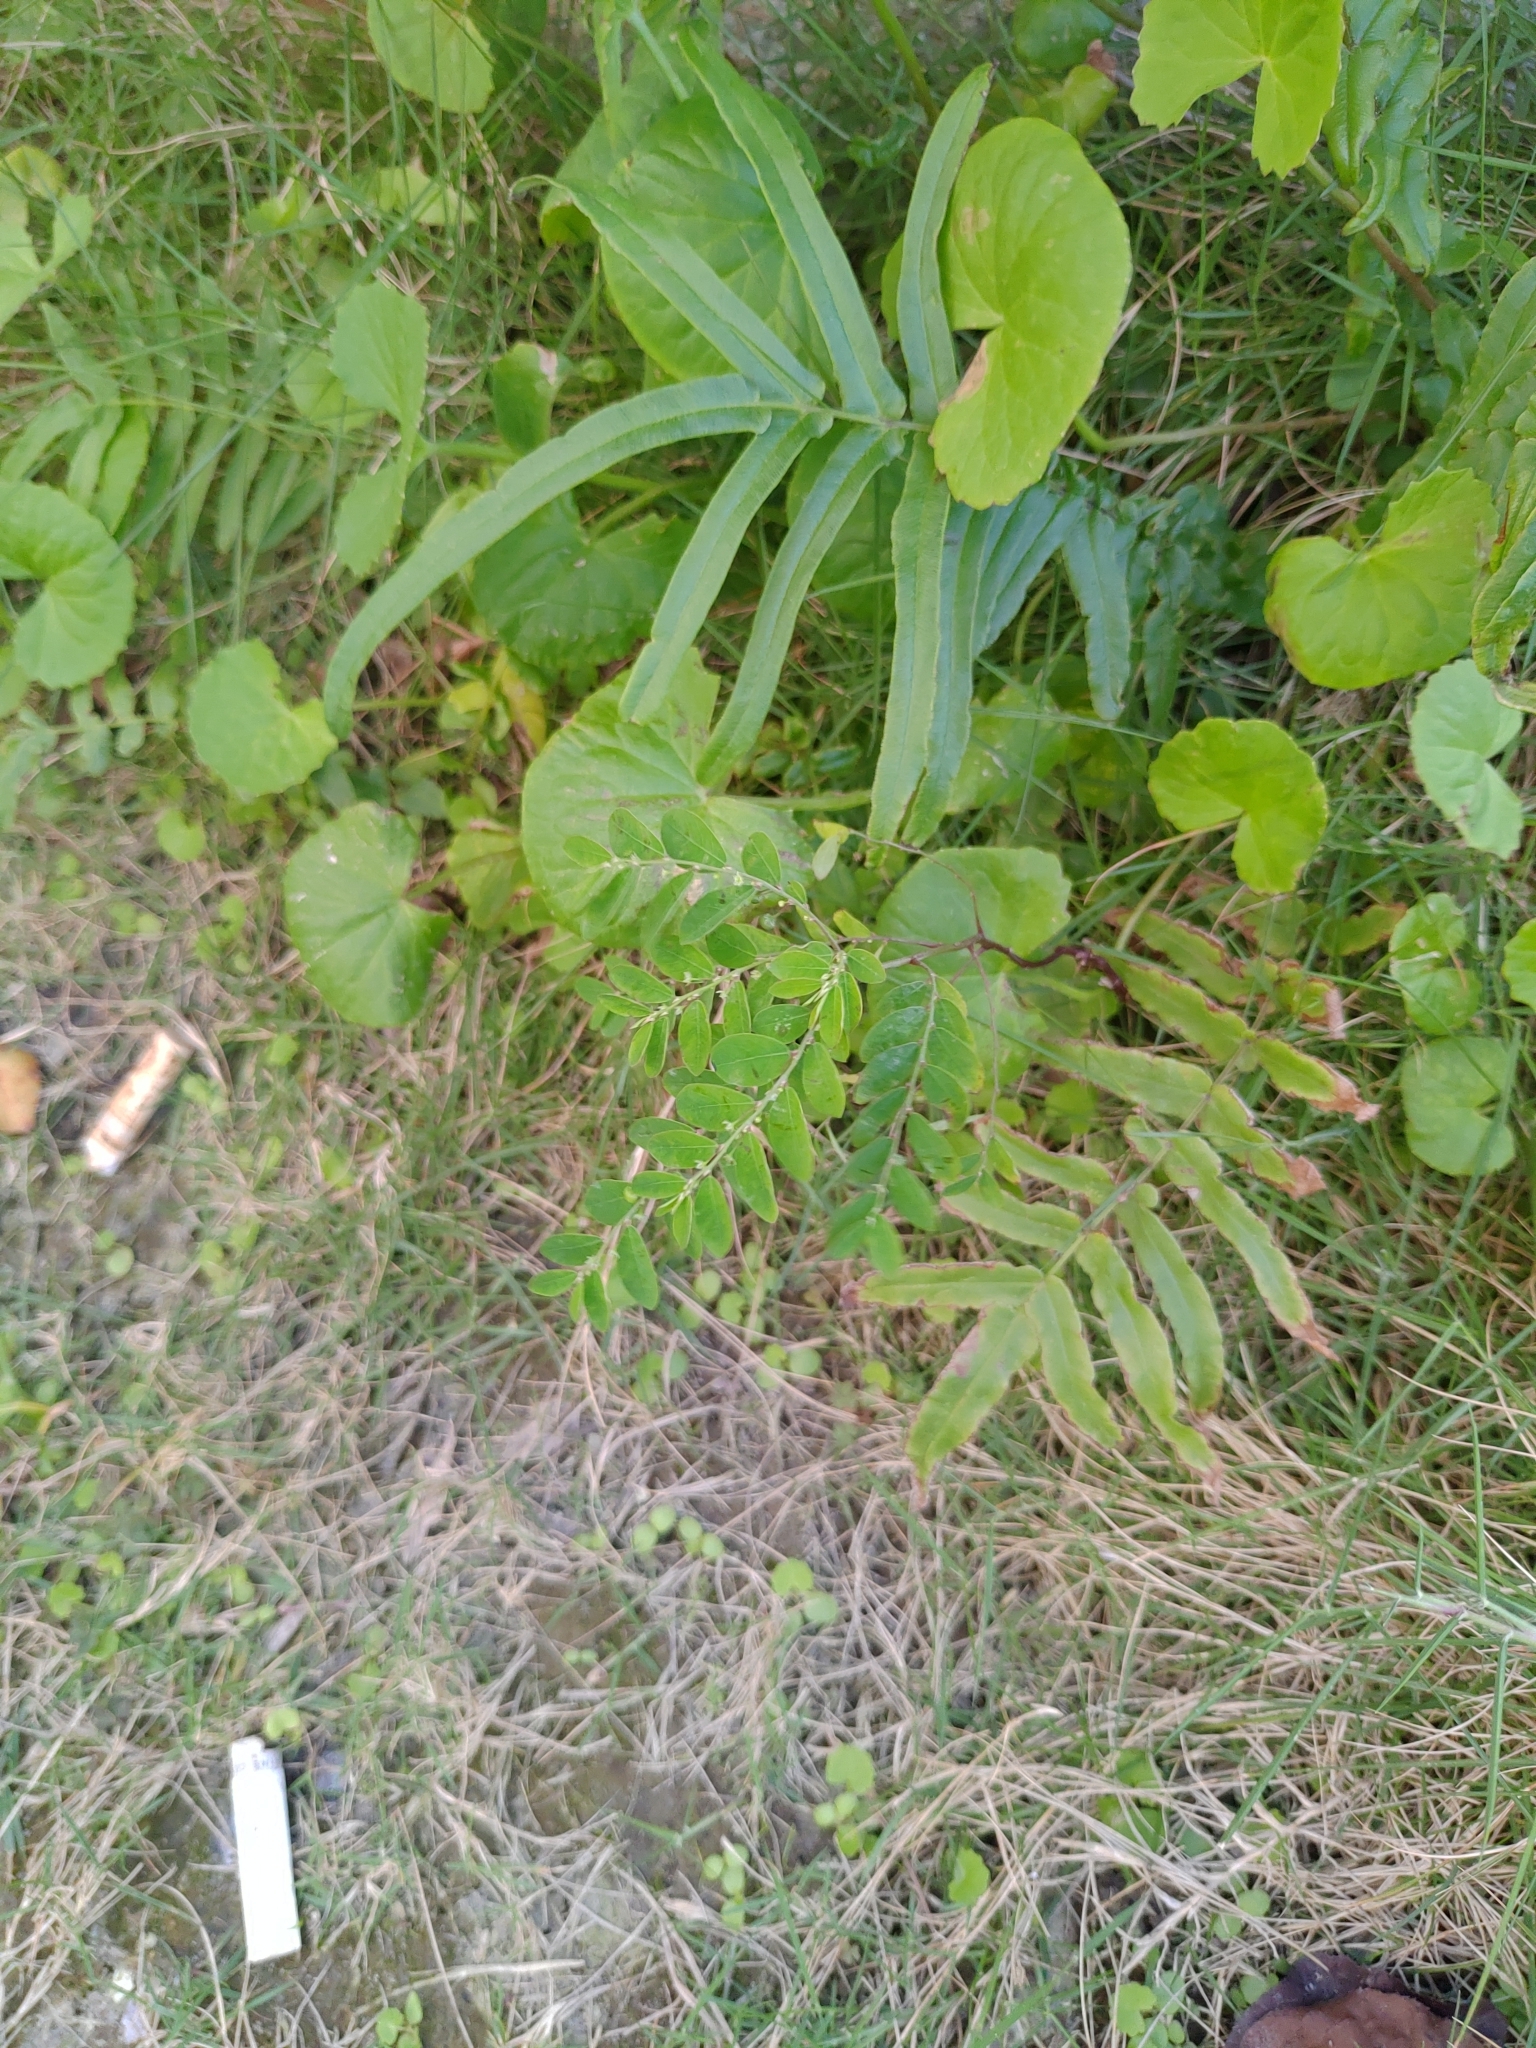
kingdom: Plantae
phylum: Tracheophyta
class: Magnoliopsida
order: Malpighiales
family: Phyllanthaceae
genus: Phyllanthus
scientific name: Phyllanthus tenellus
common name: Mascarene island leaf-flower
